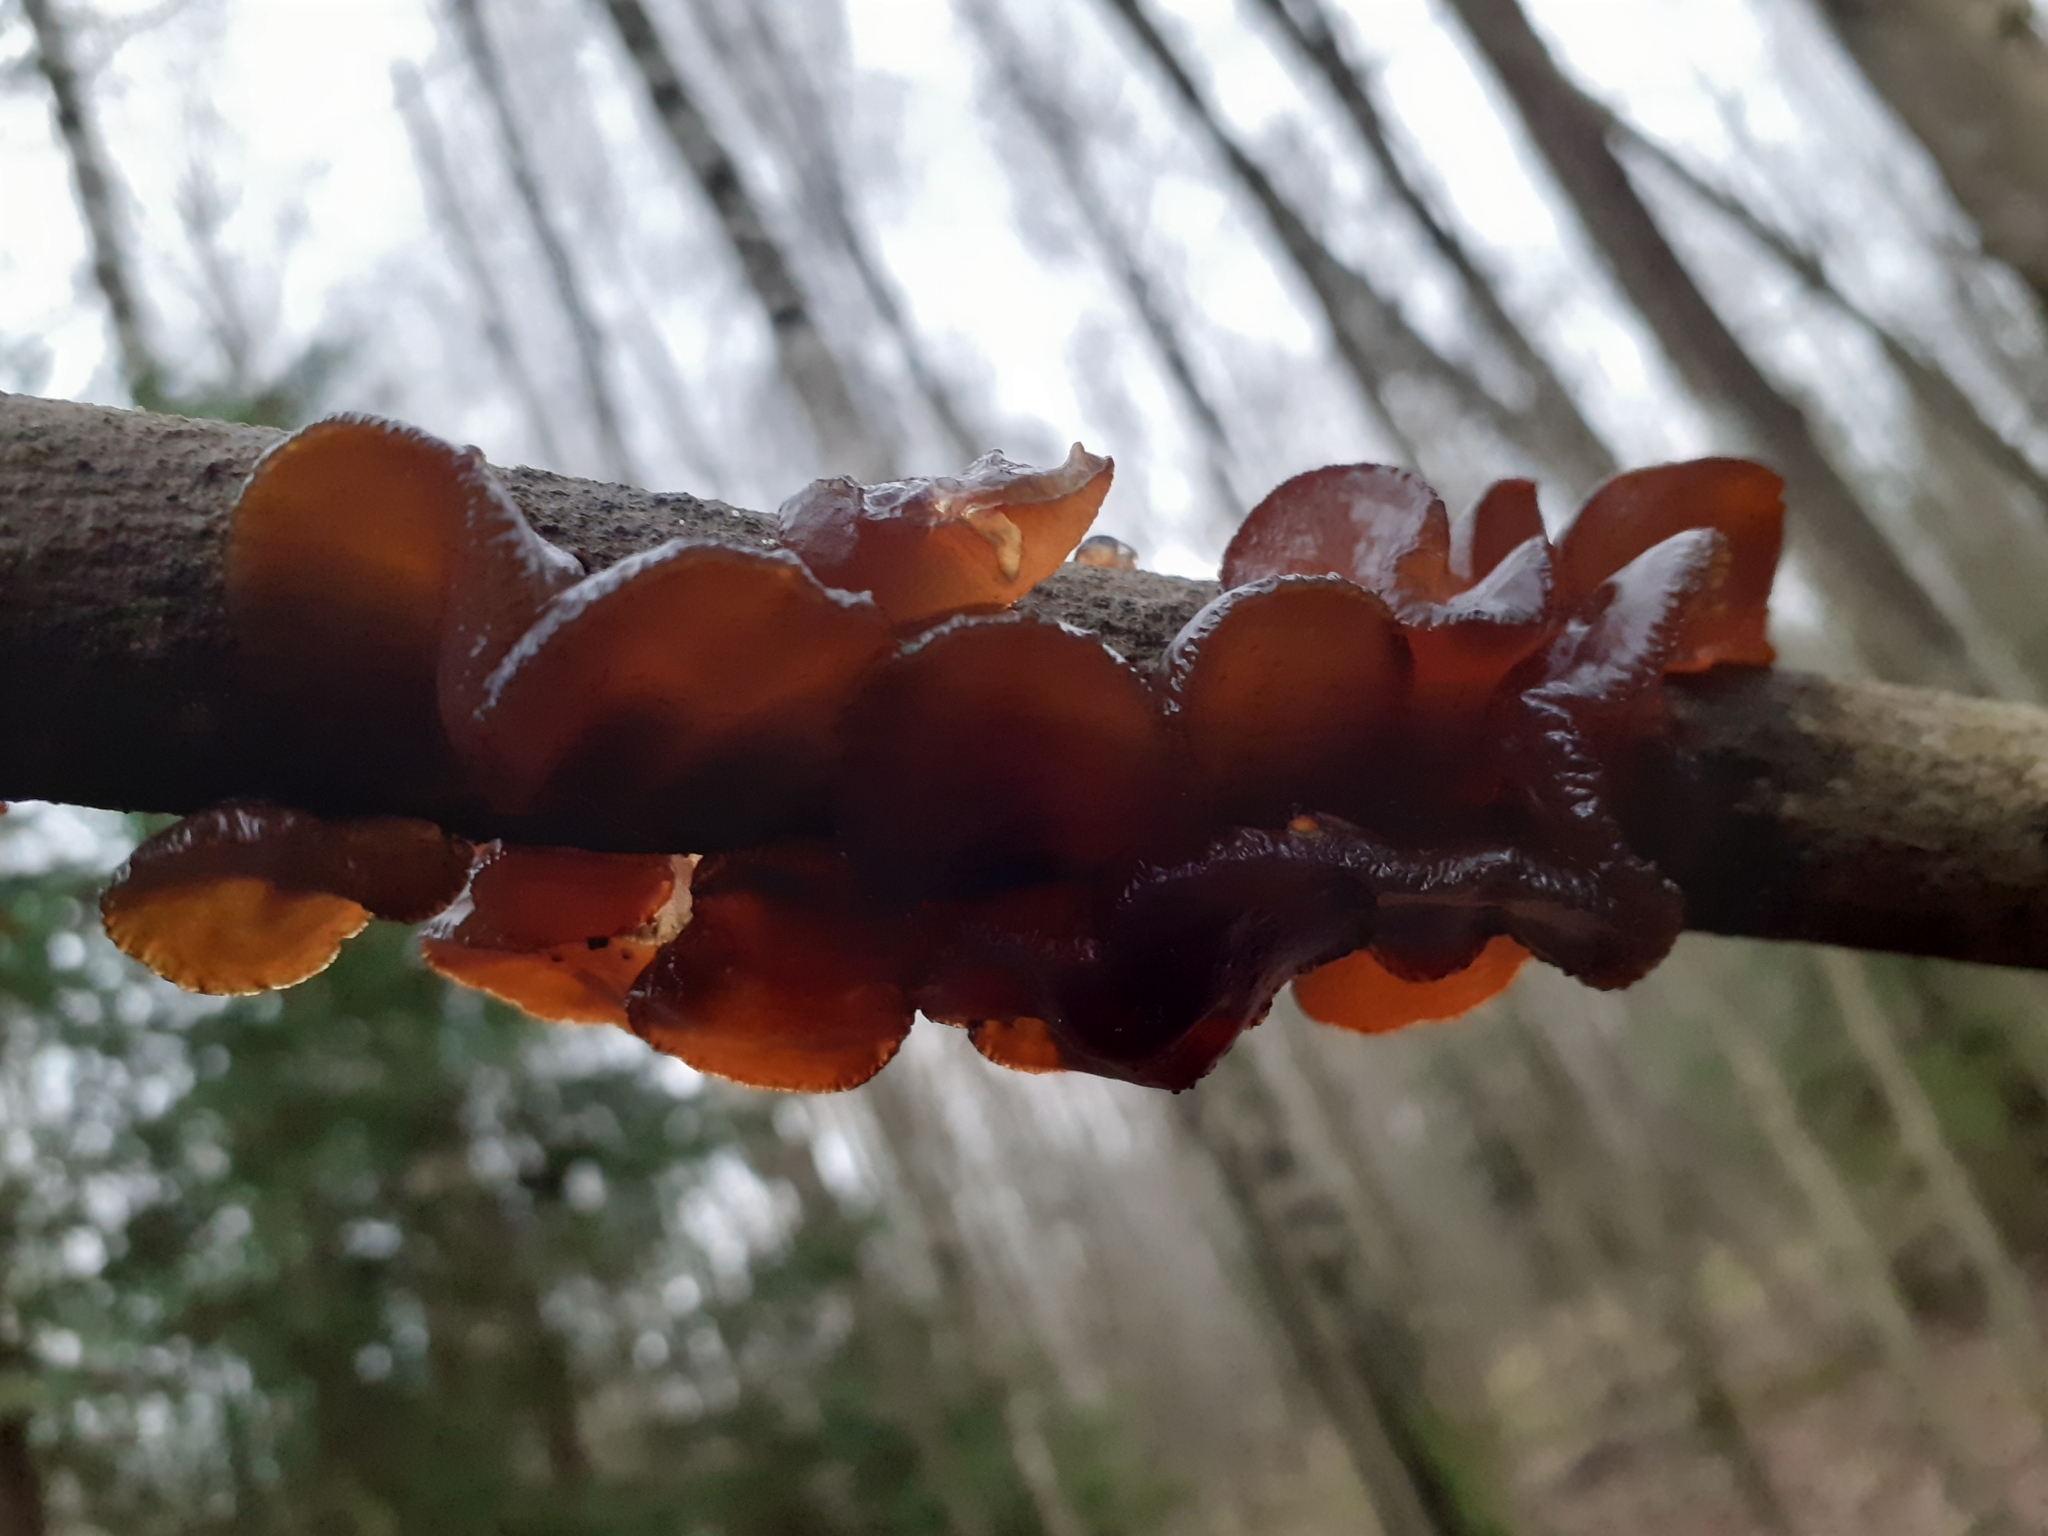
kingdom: Fungi
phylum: Basidiomycota
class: Agaricomycetes
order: Auriculariales
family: Auriculariaceae
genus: Exidia
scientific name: Exidia recisa
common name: Amber jelly
